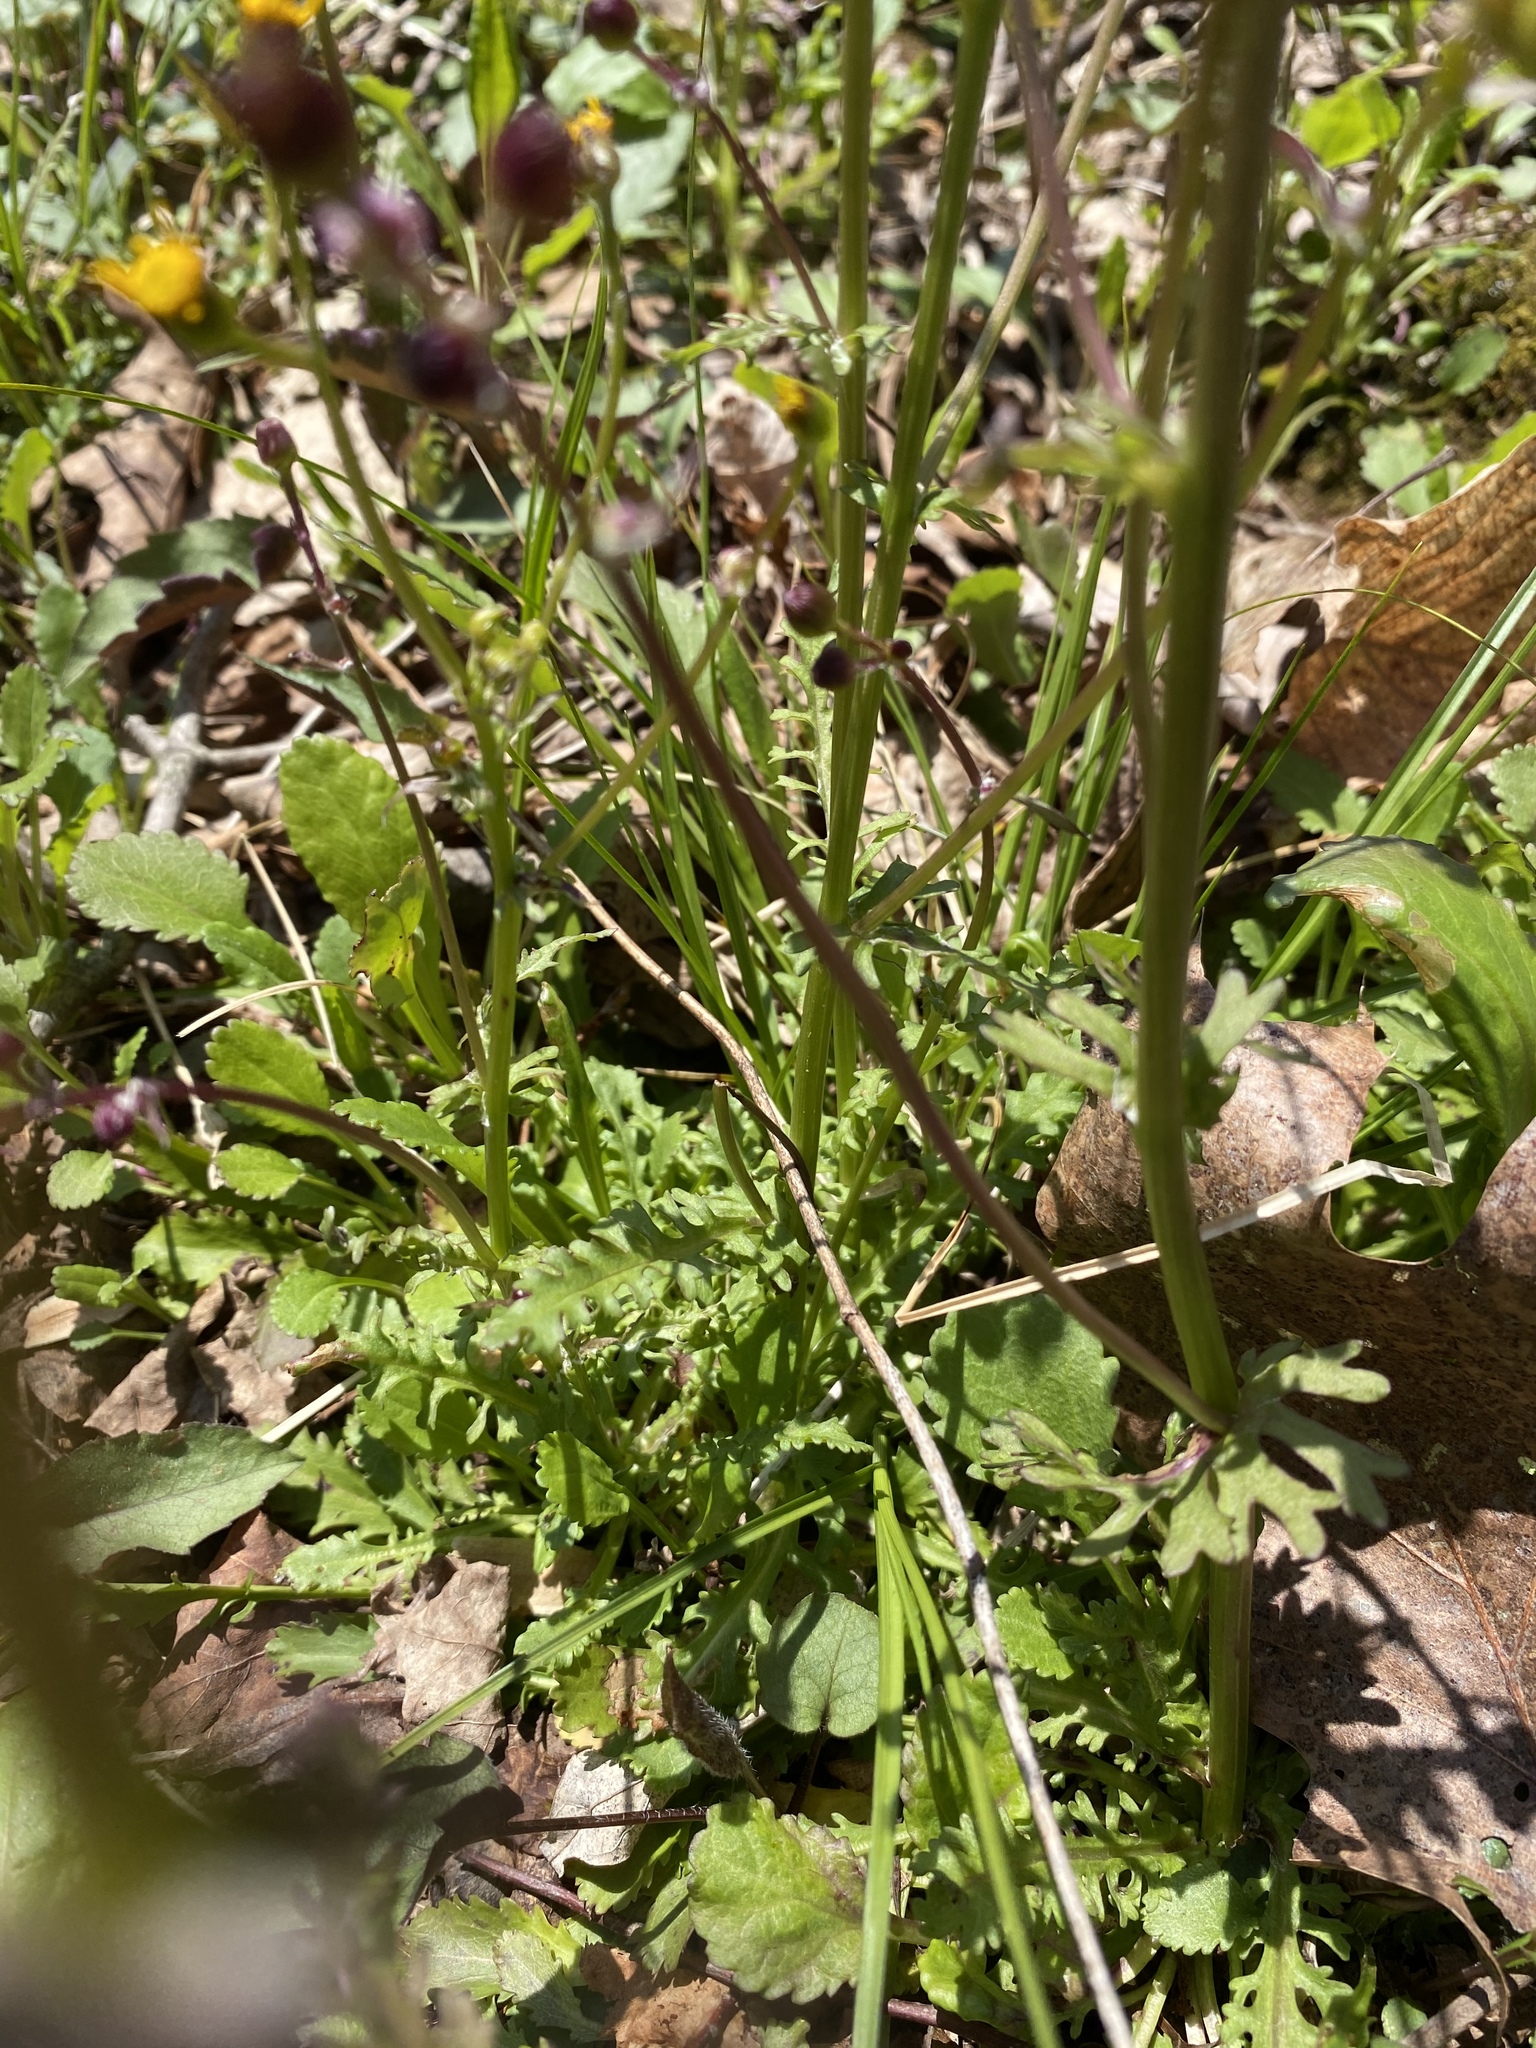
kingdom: Plantae
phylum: Tracheophyta
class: Magnoliopsida
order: Asterales
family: Asteraceae
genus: Packera
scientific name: Packera obovata
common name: Round-leaf ragwort
